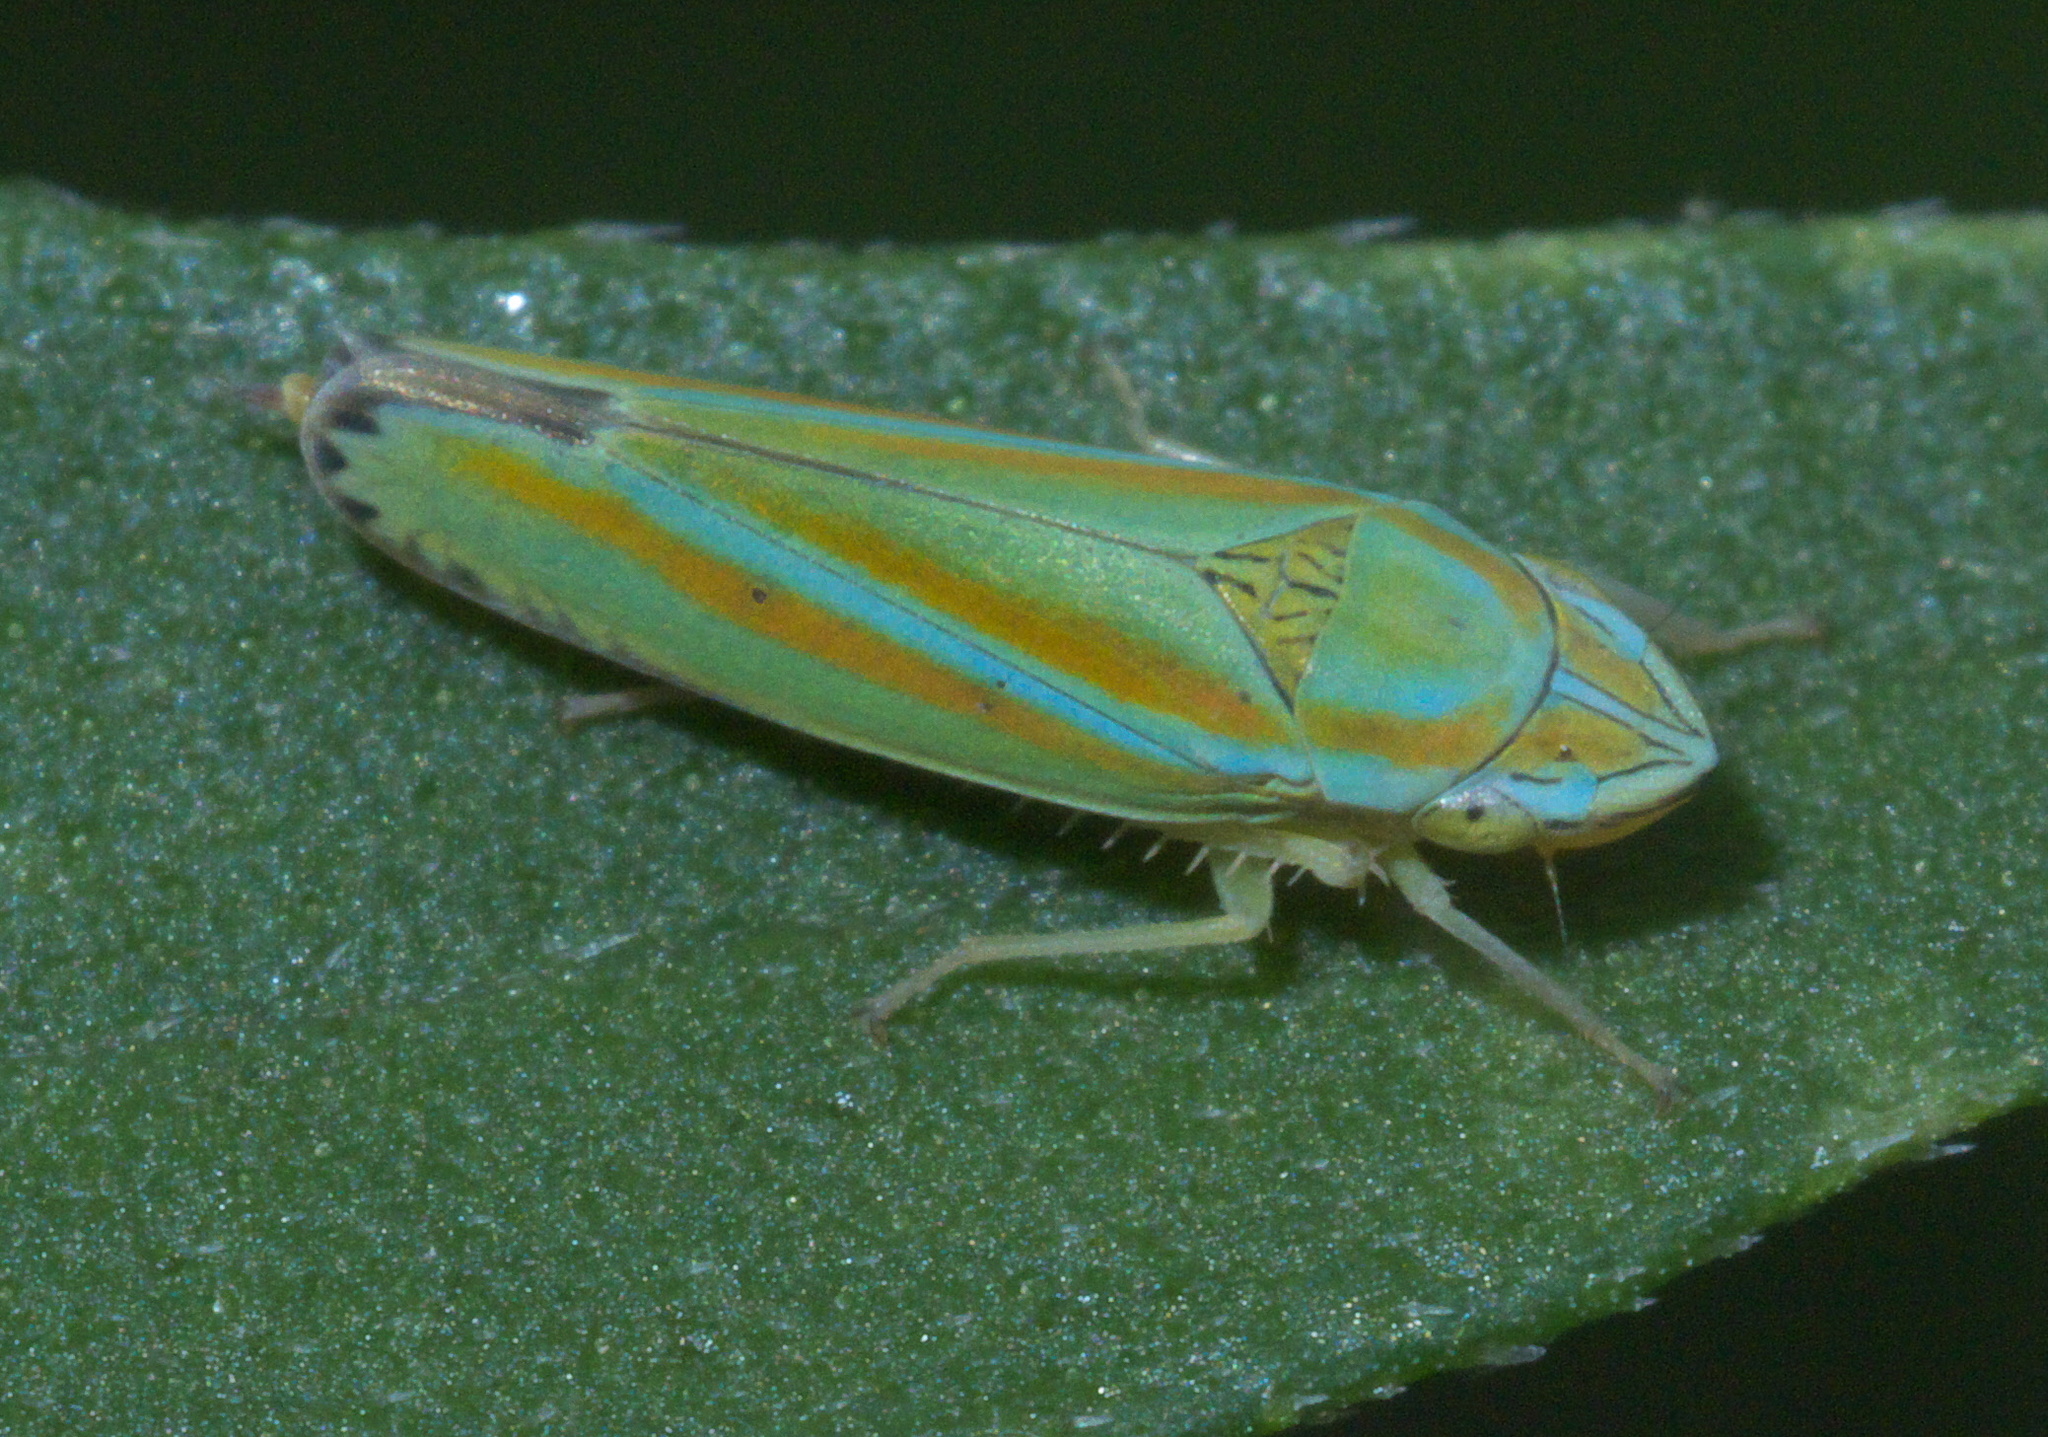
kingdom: Animalia
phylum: Arthropoda
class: Insecta
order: Hemiptera
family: Cicadellidae
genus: Graphocephala
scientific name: Graphocephala versuta
